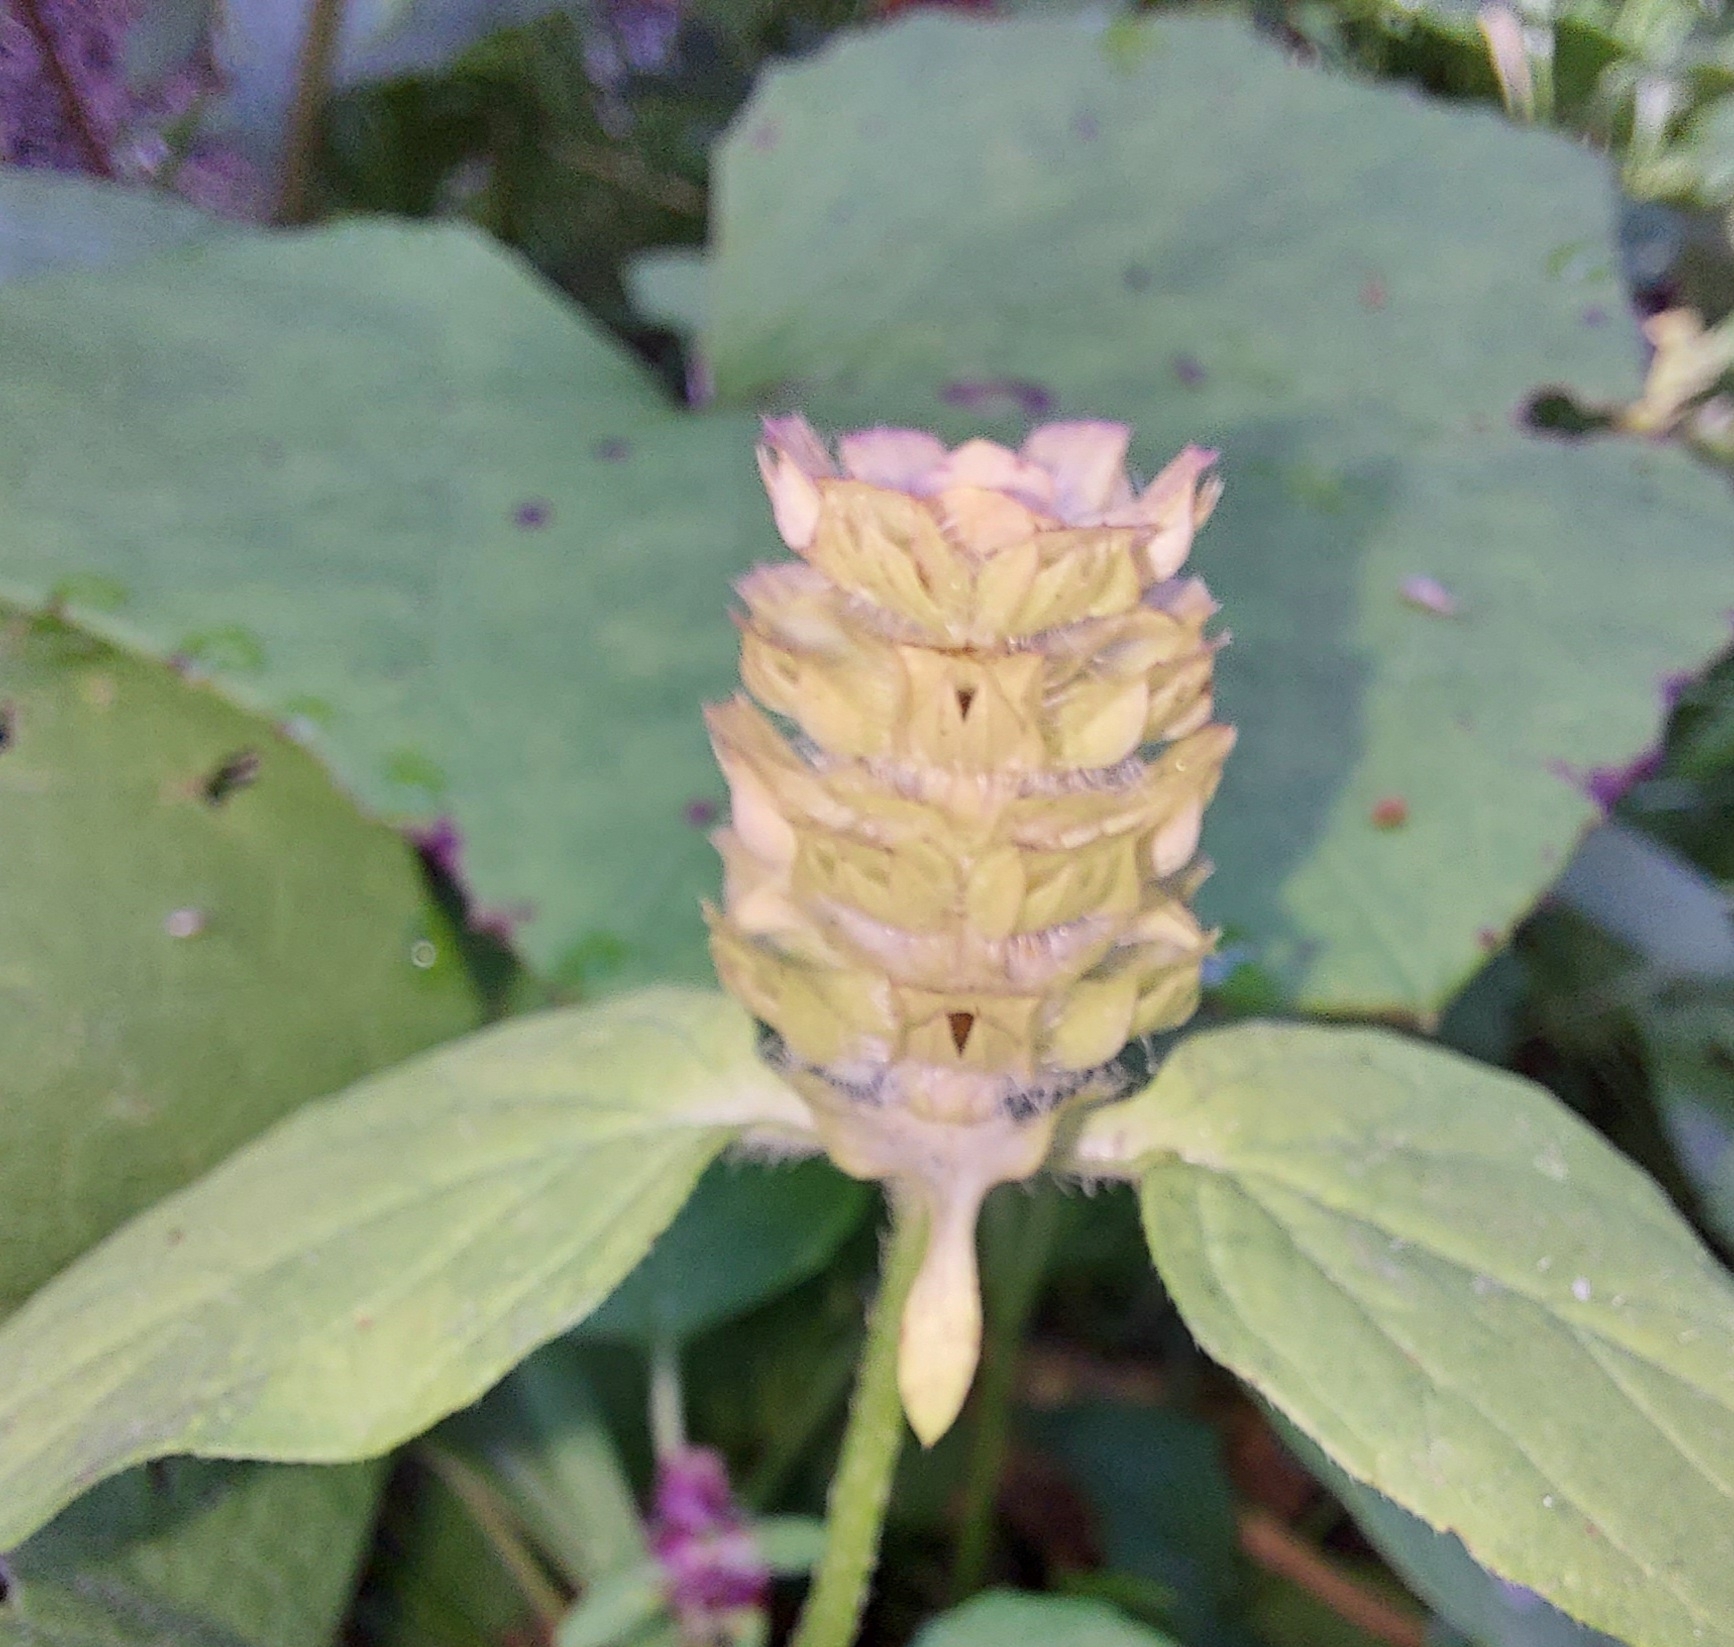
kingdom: Plantae
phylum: Tracheophyta
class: Magnoliopsida
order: Lamiales
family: Lamiaceae
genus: Prunella
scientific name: Prunella vulgaris
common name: Heal-all
